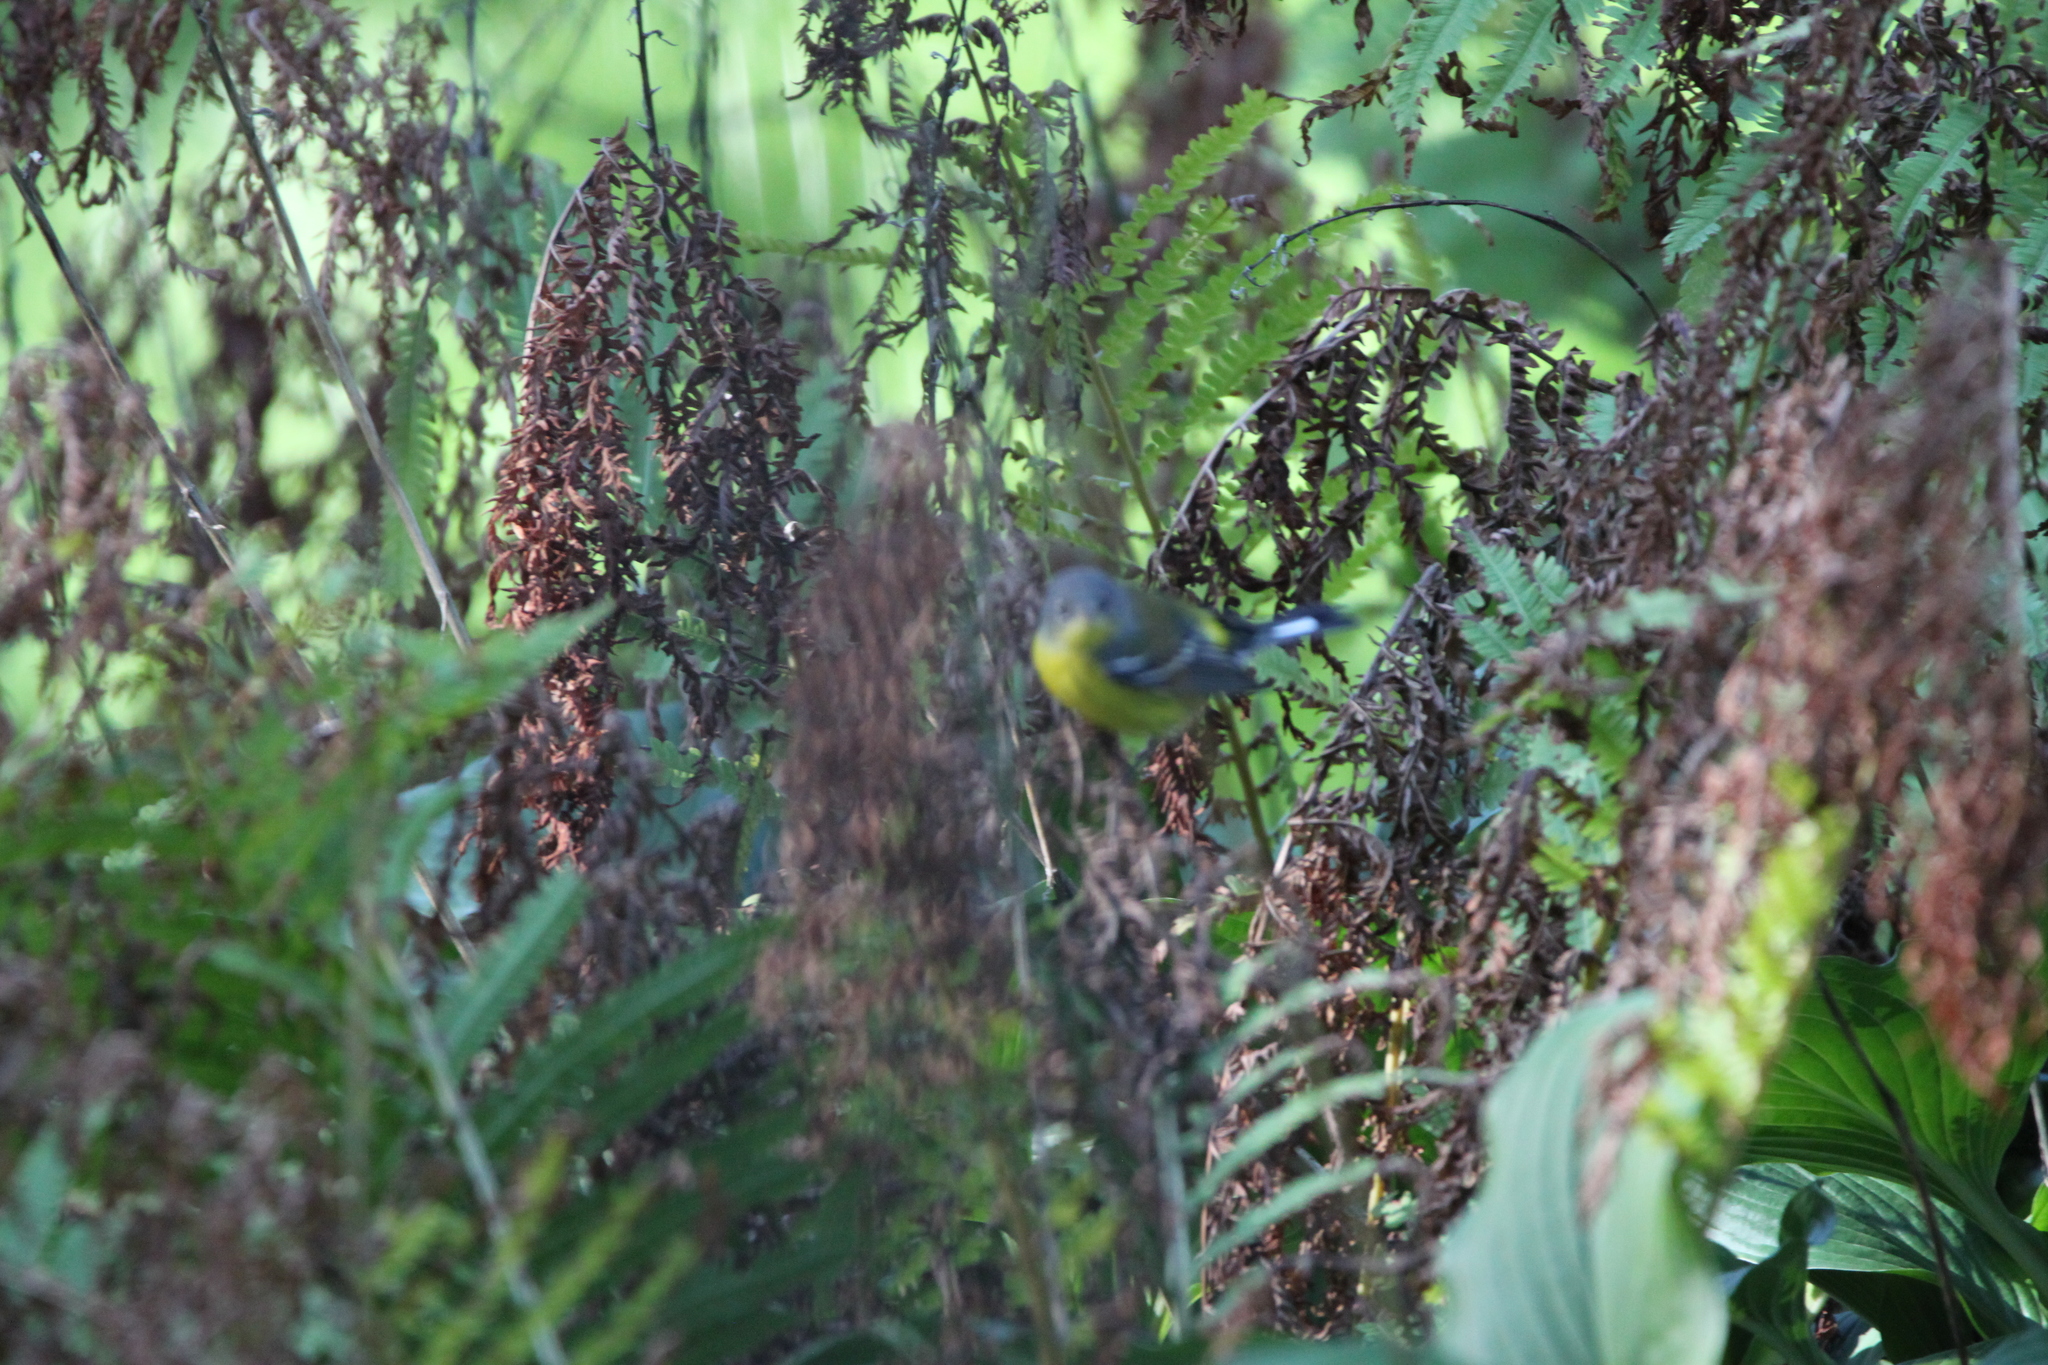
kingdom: Animalia
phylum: Chordata
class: Aves
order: Passeriformes
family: Parulidae
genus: Setophaga
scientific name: Setophaga americana
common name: Northern parula
